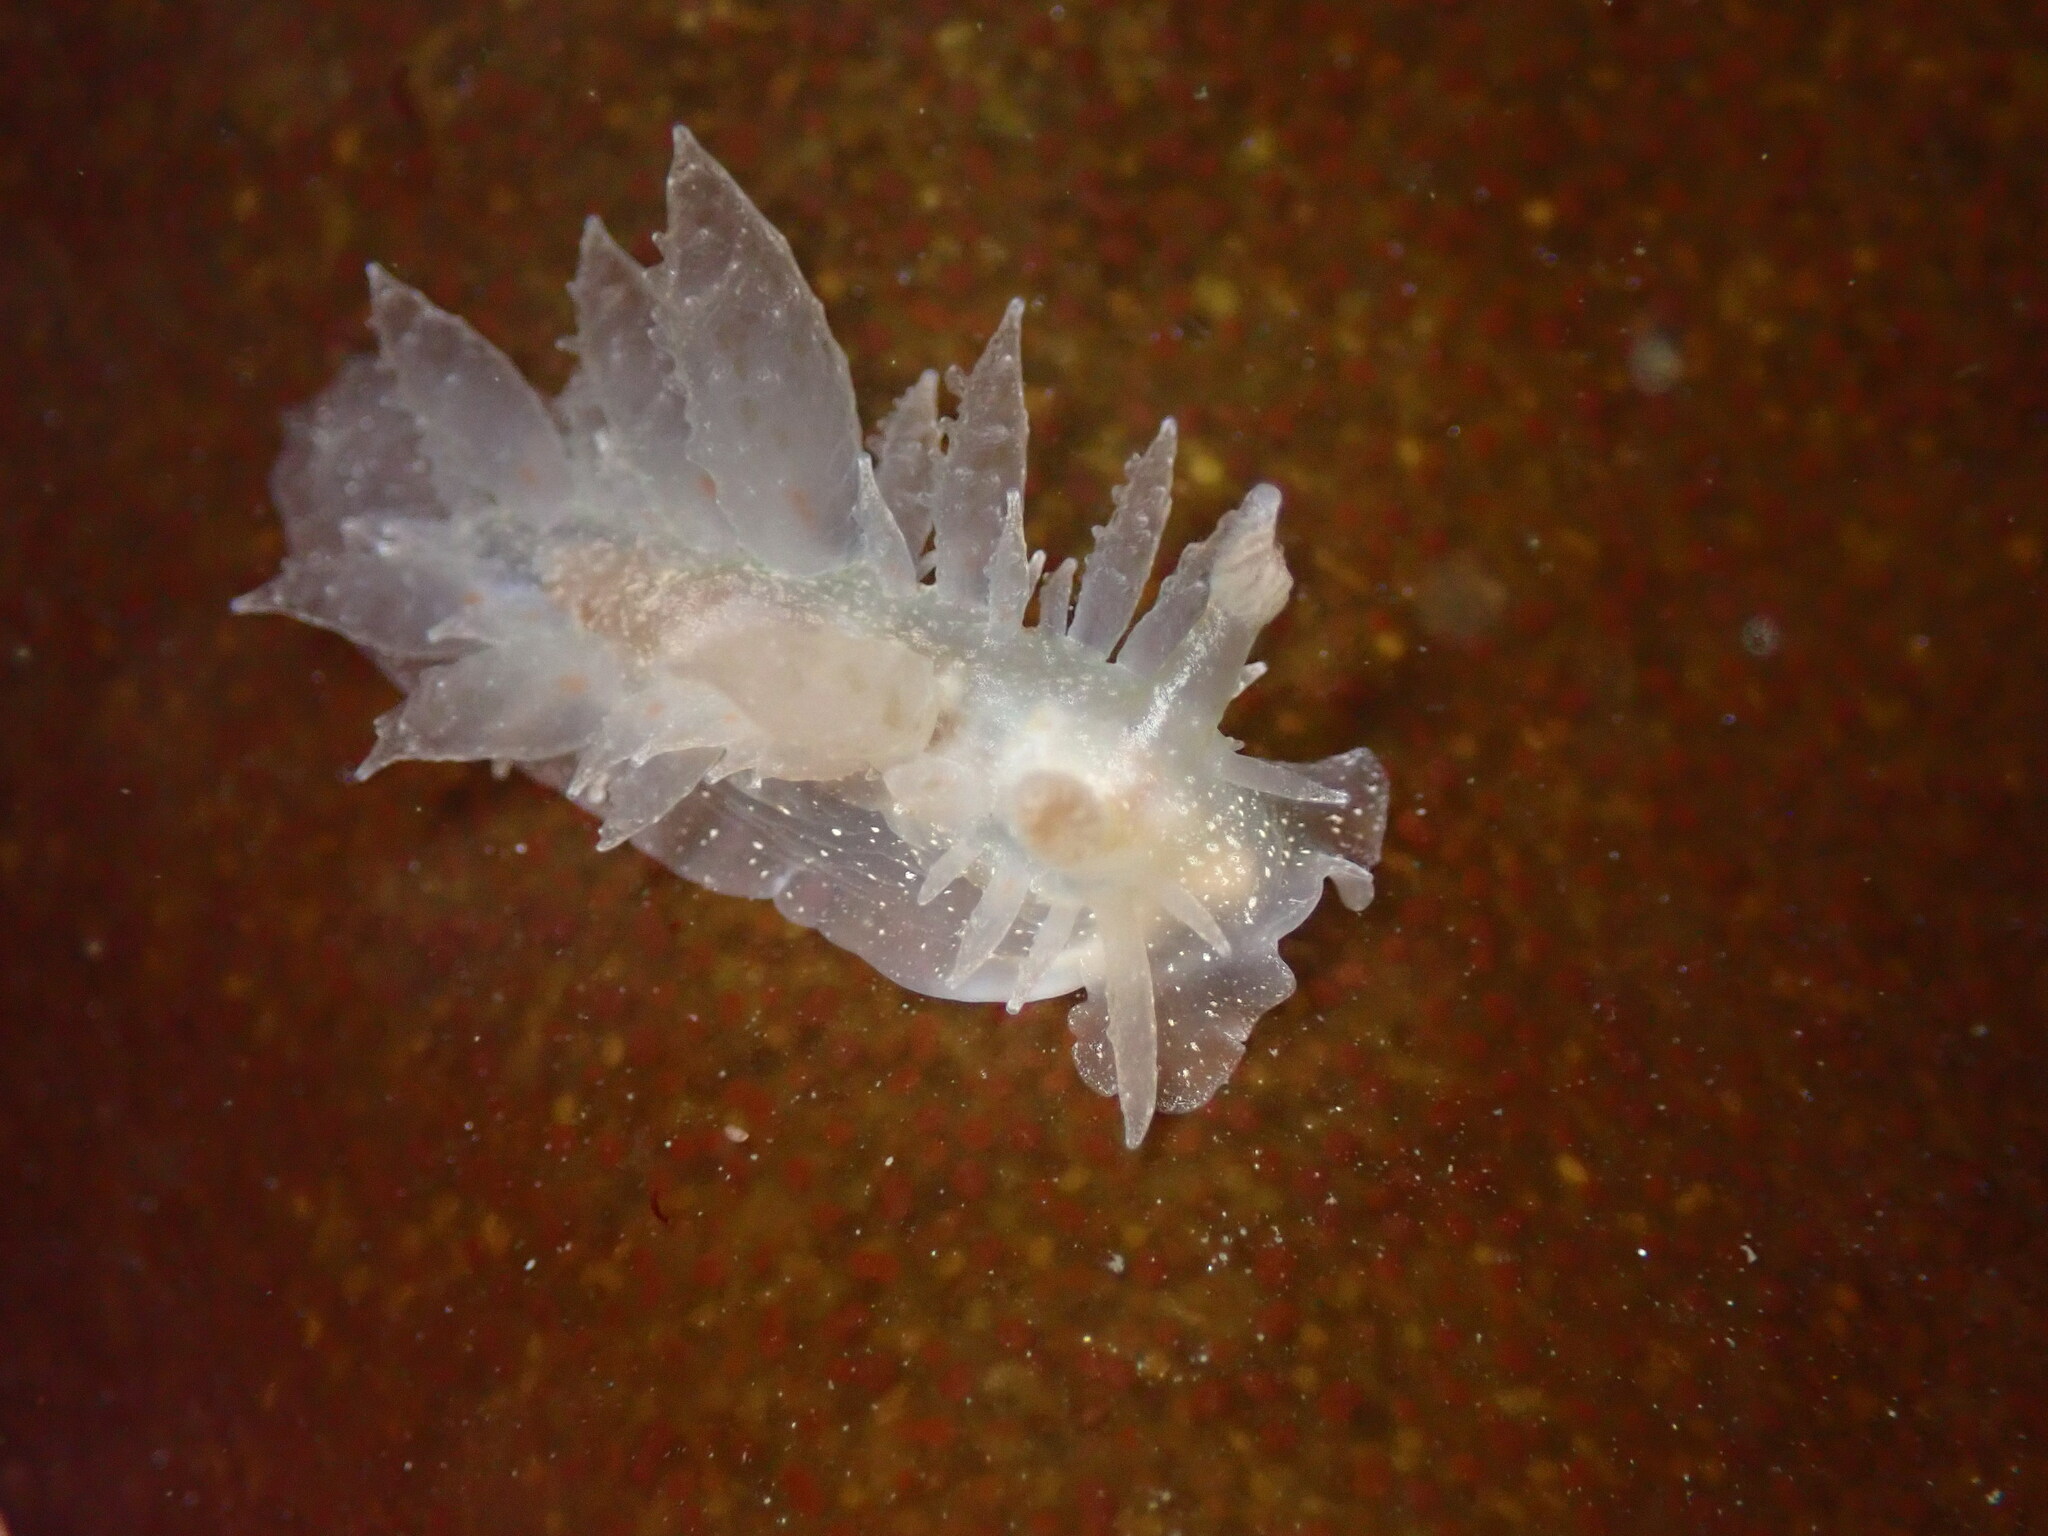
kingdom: Animalia
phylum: Mollusca
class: Gastropoda
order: Nudibranchia
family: Dironidae
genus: Dirona
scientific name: Dirona picta
